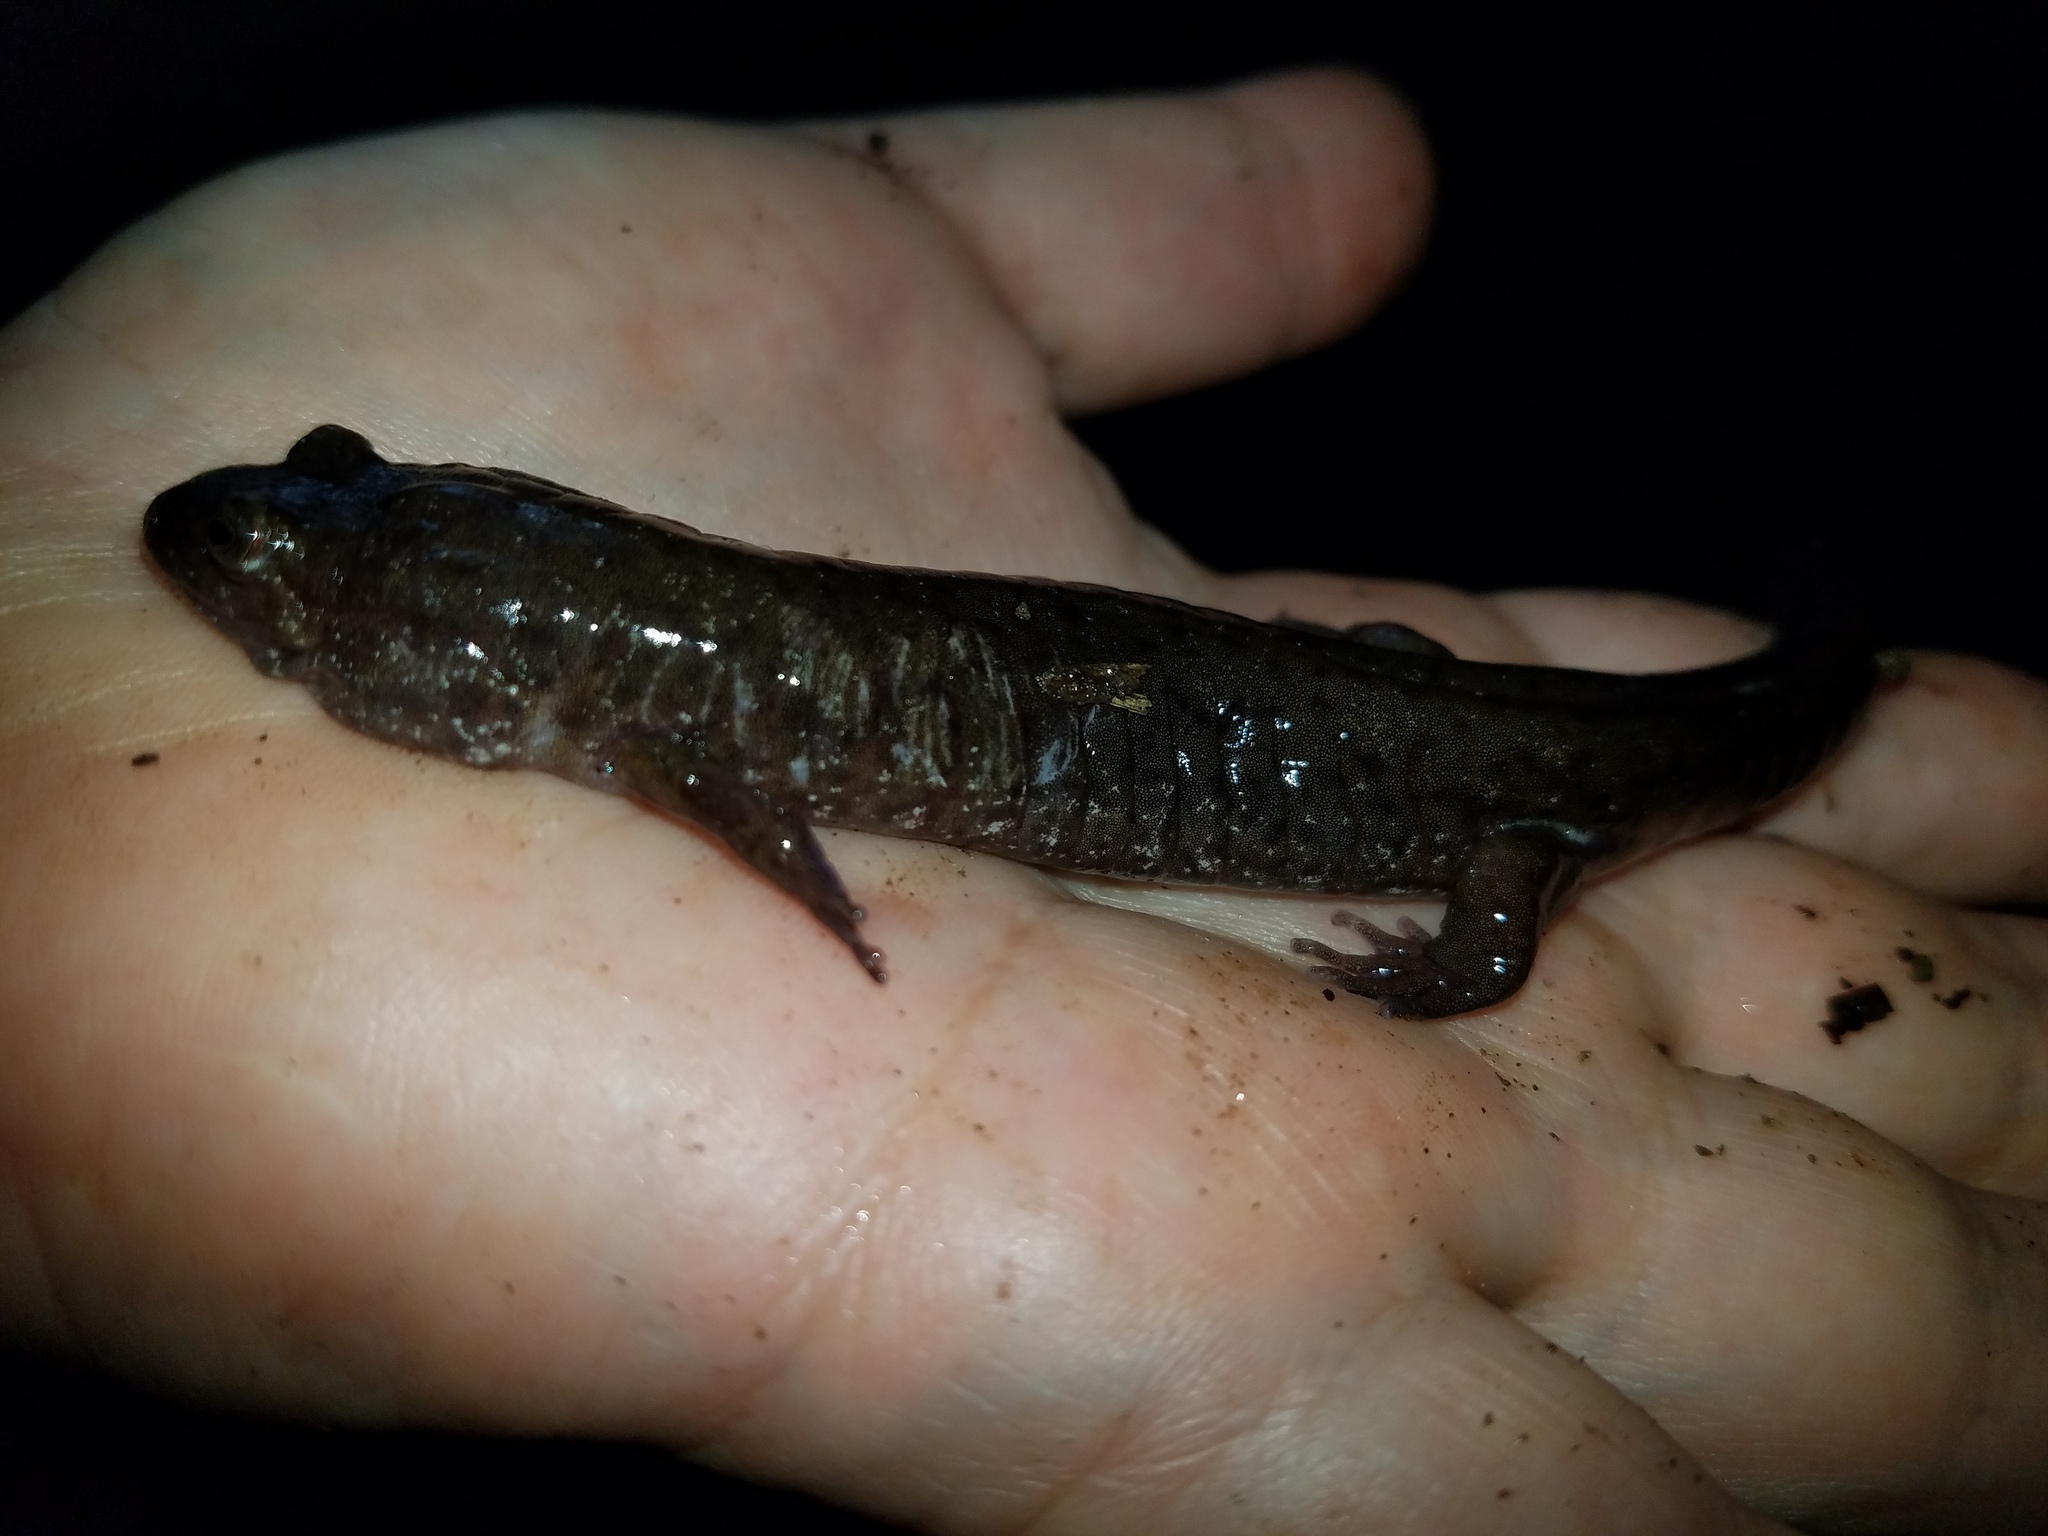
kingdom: Animalia
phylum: Chordata
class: Amphibia
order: Caudata
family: Plethodontidae
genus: Desmognathus
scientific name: Desmognathus monticola
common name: Seal salamander
